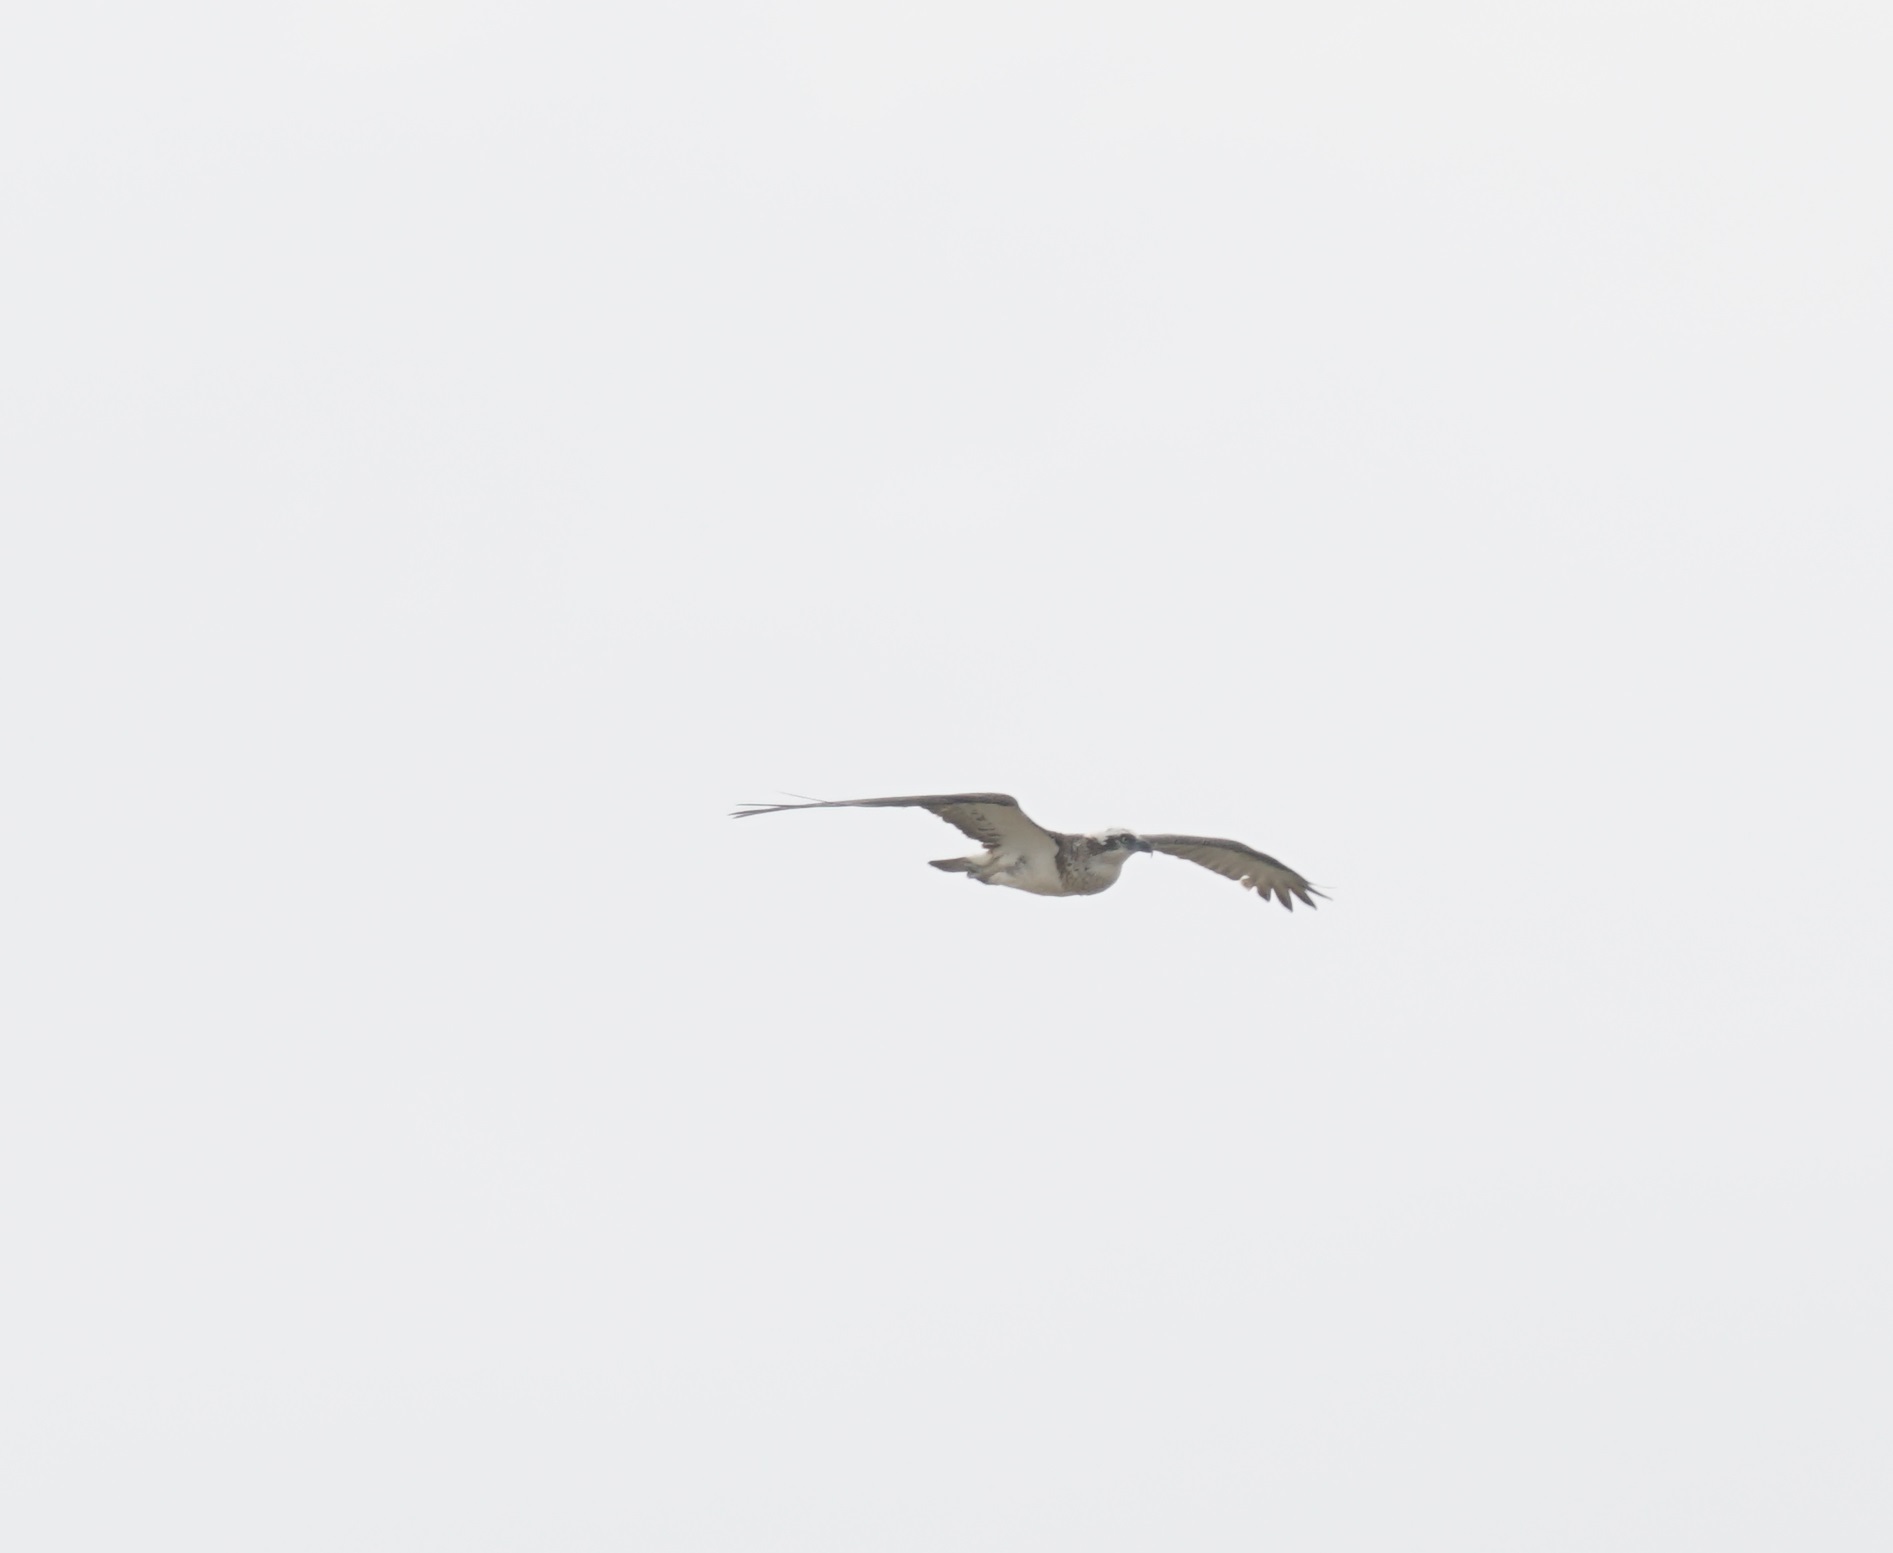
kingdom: Animalia
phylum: Chordata
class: Aves
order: Accipitriformes
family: Pandionidae
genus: Pandion
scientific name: Pandion cristatus
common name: Eastern osprey
